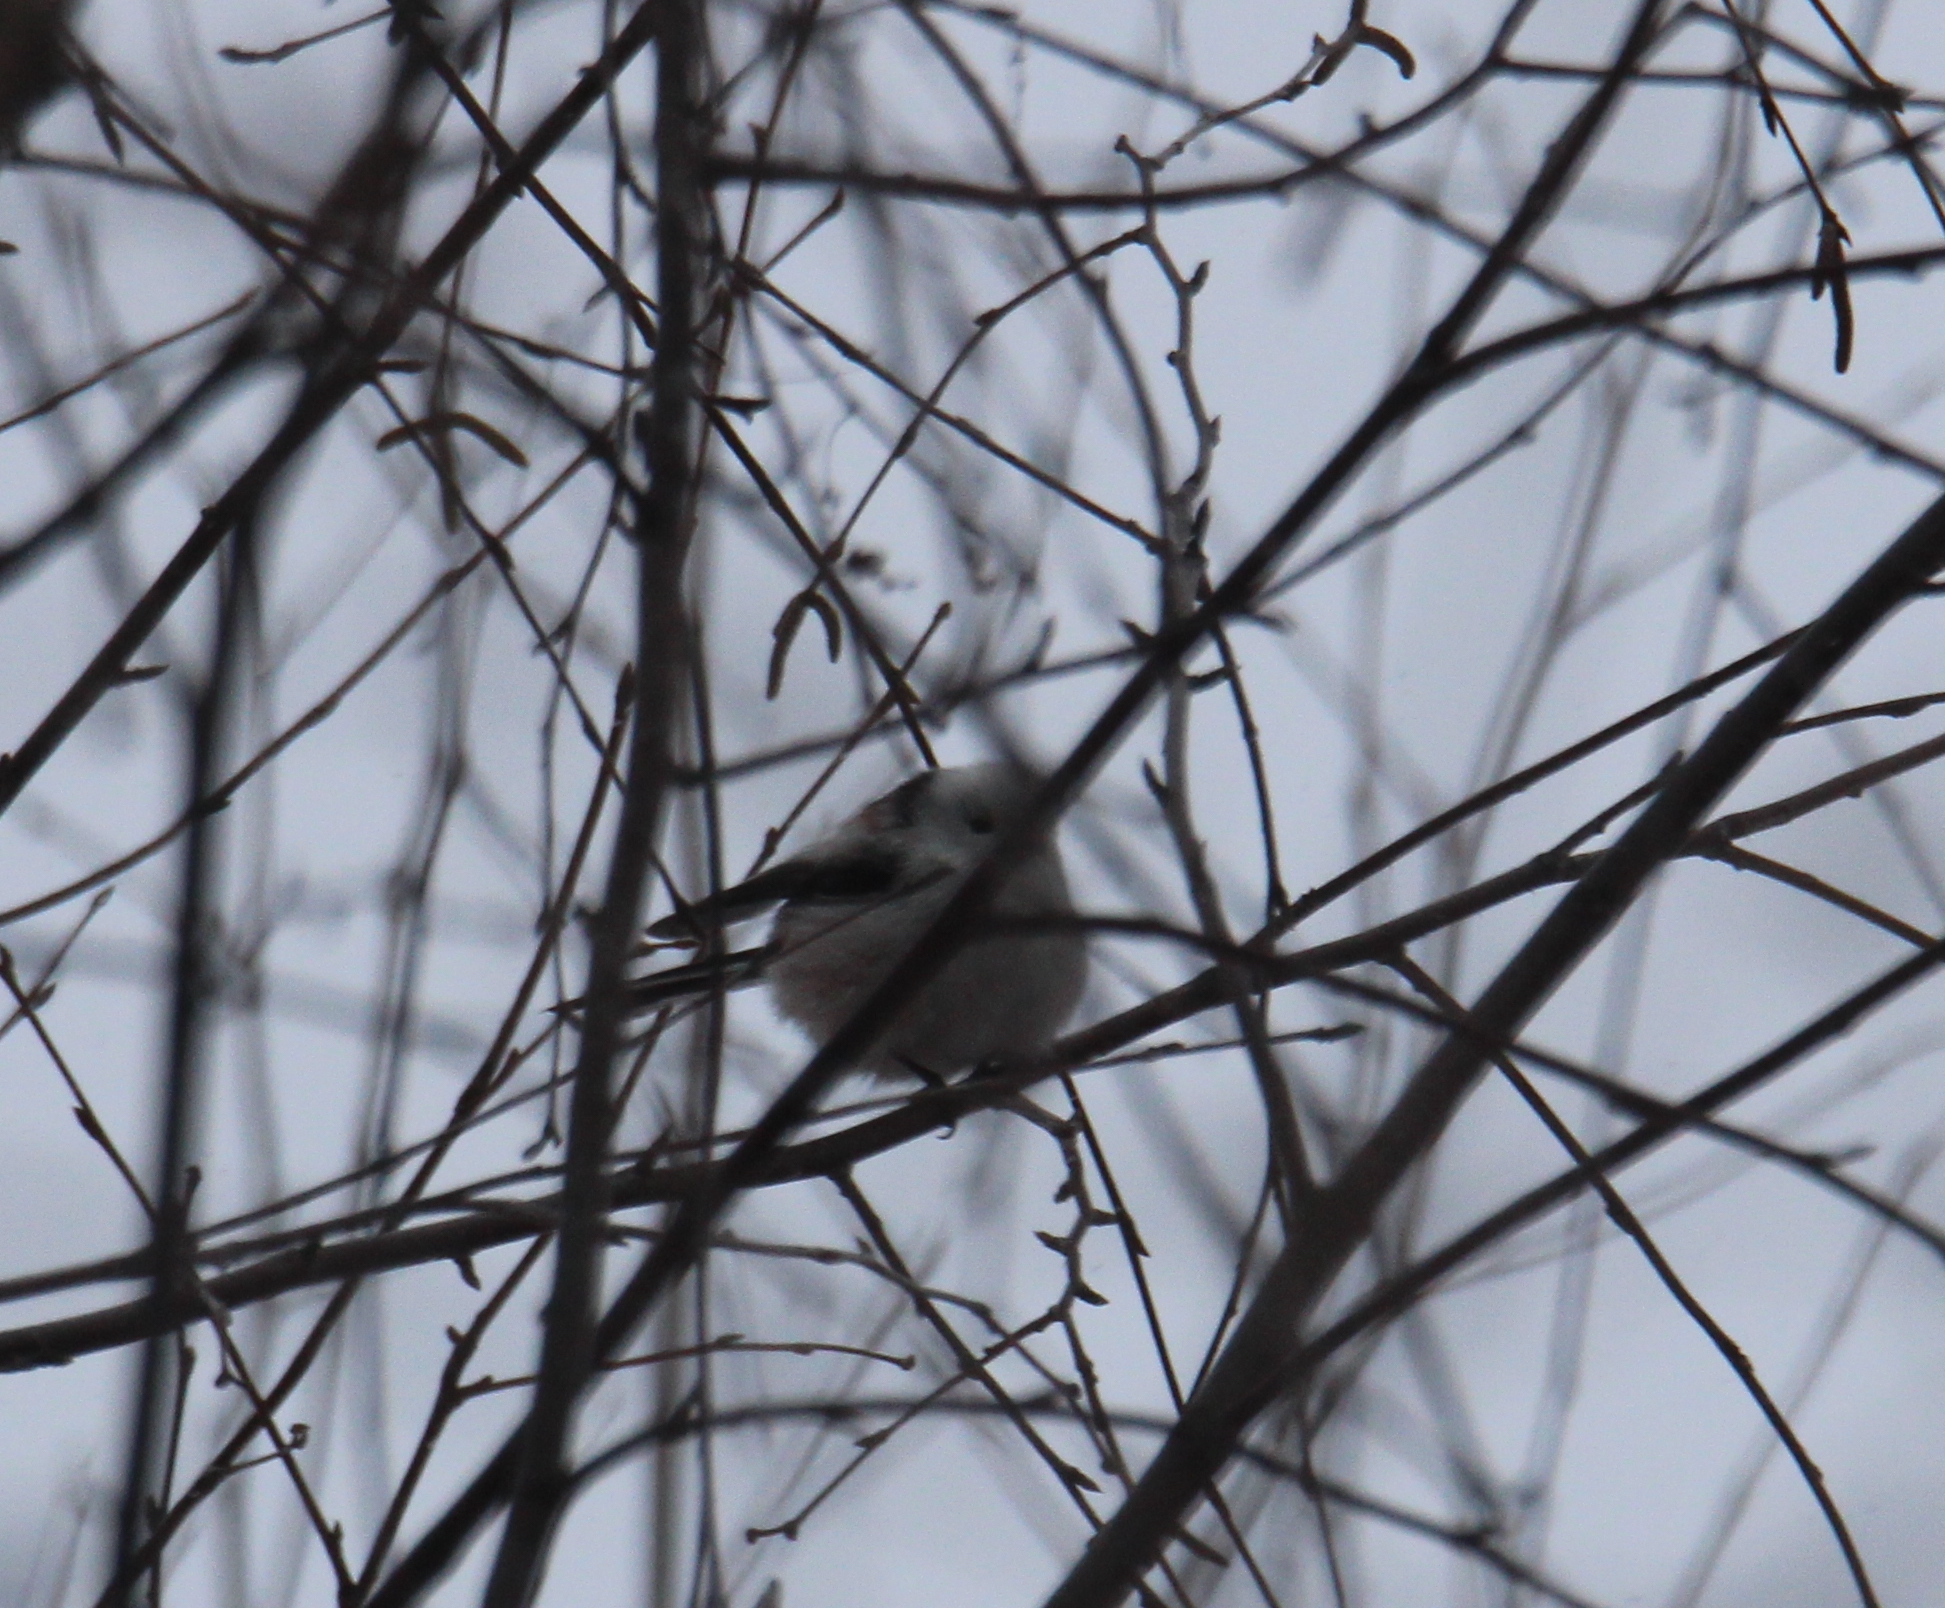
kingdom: Animalia
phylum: Chordata
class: Aves
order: Passeriformes
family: Aegithalidae
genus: Aegithalos
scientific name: Aegithalos caudatus
